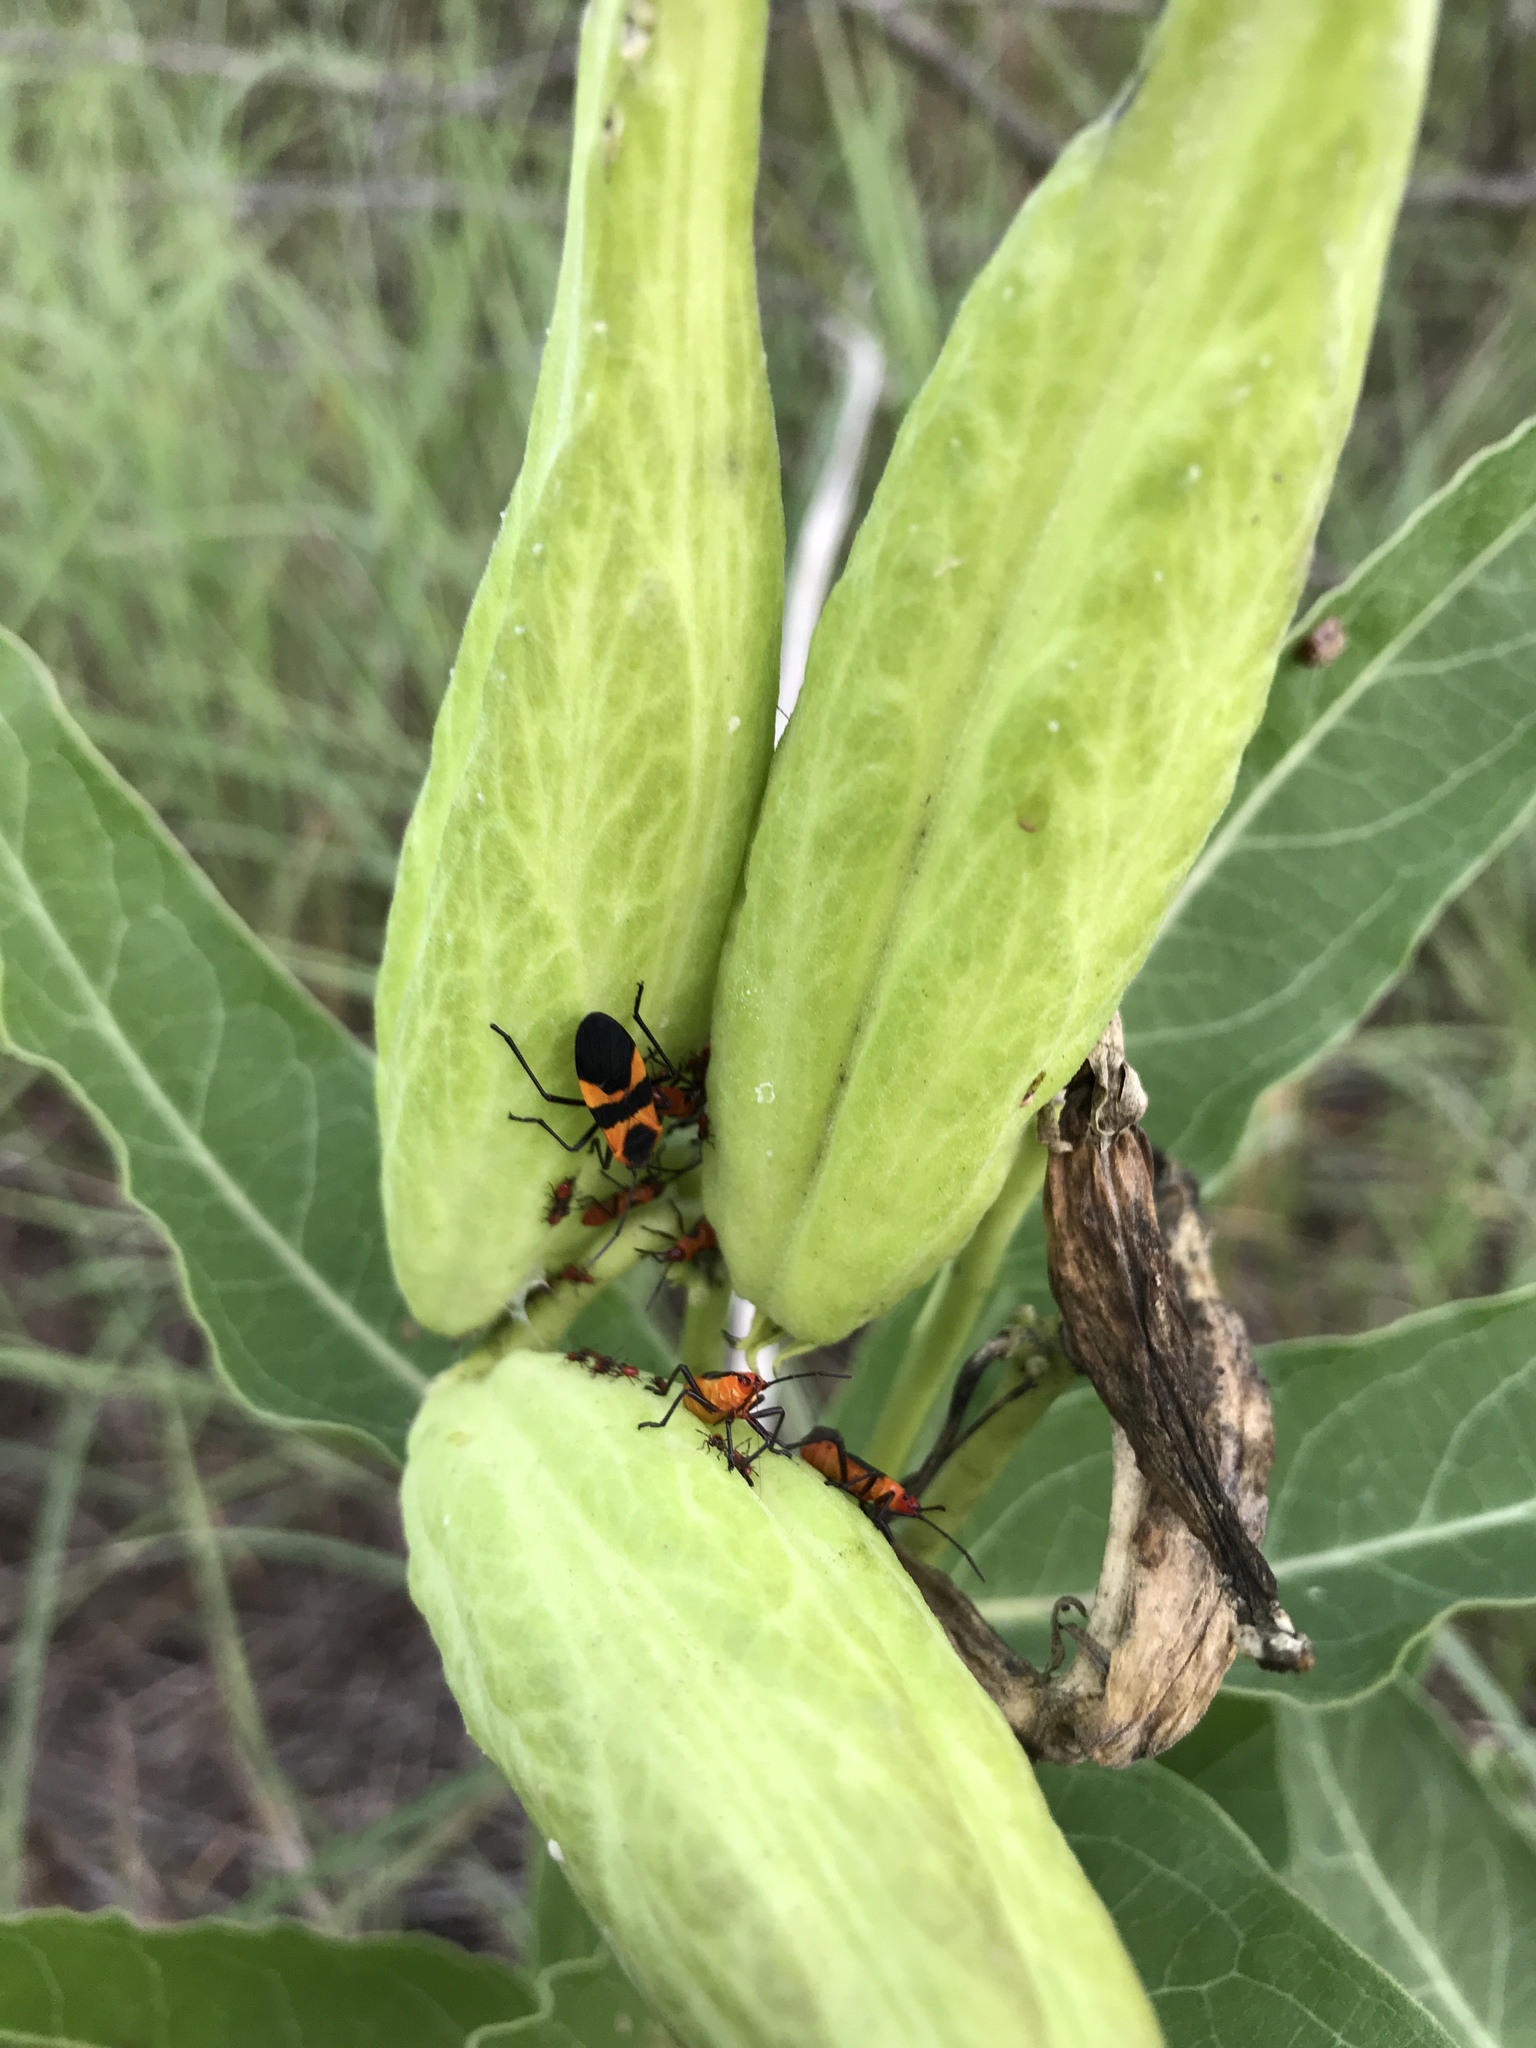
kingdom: Animalia
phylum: Arthropoda
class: Insecta
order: Hemiptera
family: Lygaeidae
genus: Oncopeltus
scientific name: Oncopeltus fasciatus
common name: Large milkweed bug
